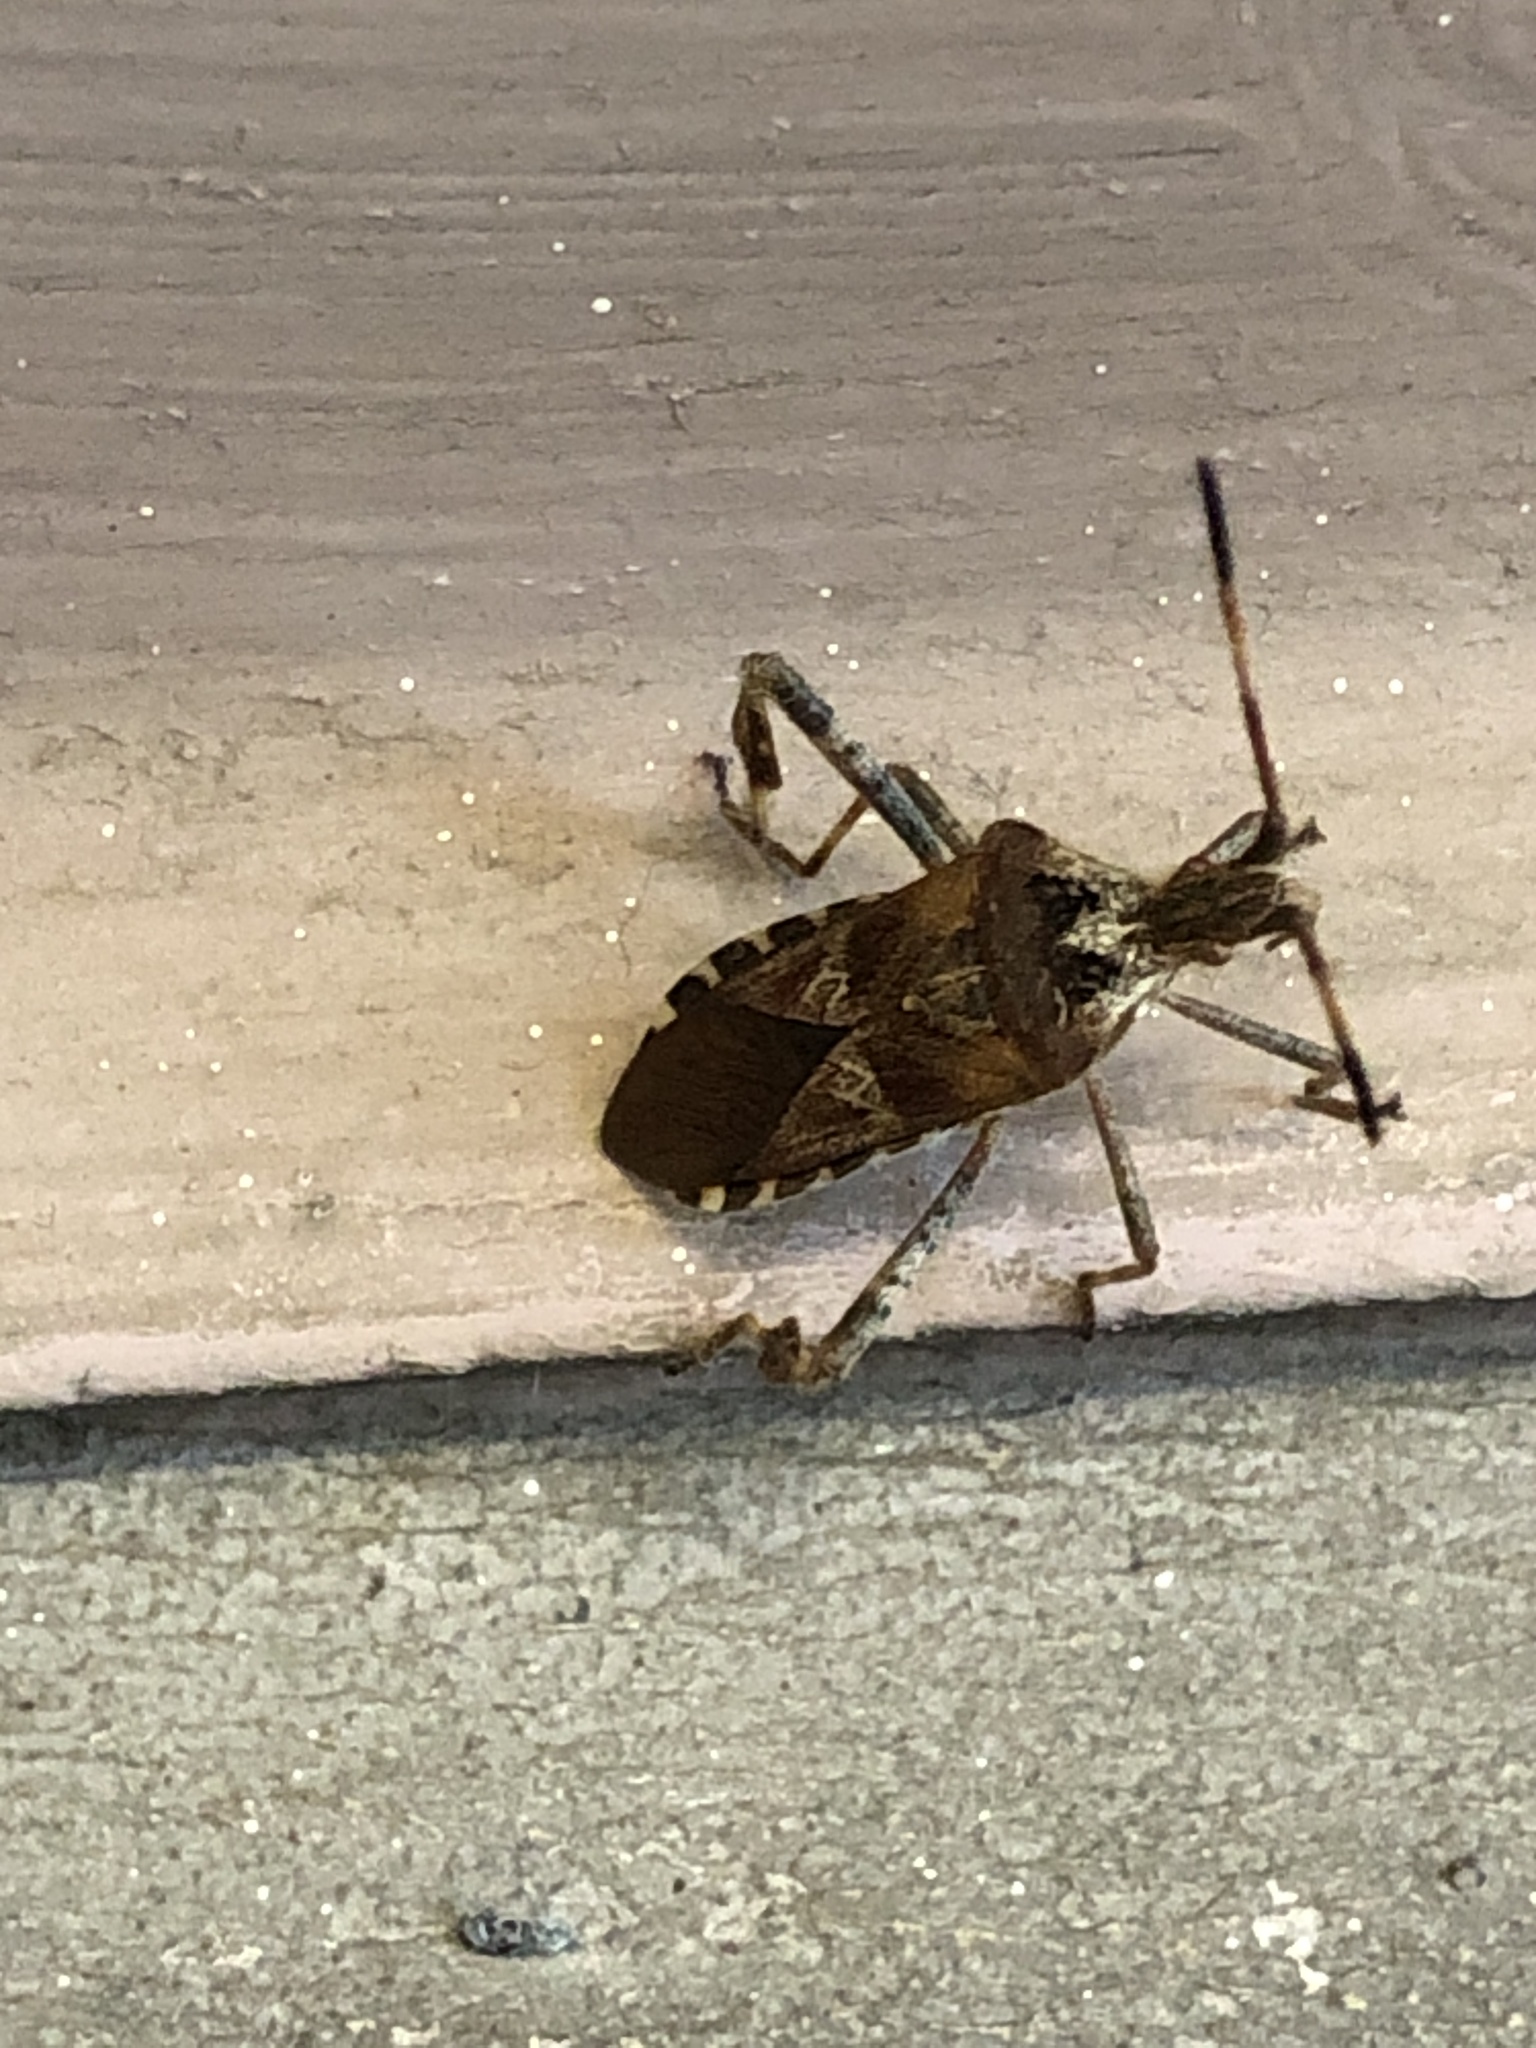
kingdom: Animalia
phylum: Arthropoda
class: Insecta
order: Hemiptera
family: Coreidae
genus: Leptoglossus
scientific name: Leptoglossus occidentalis
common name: Western conifer-seed bug
